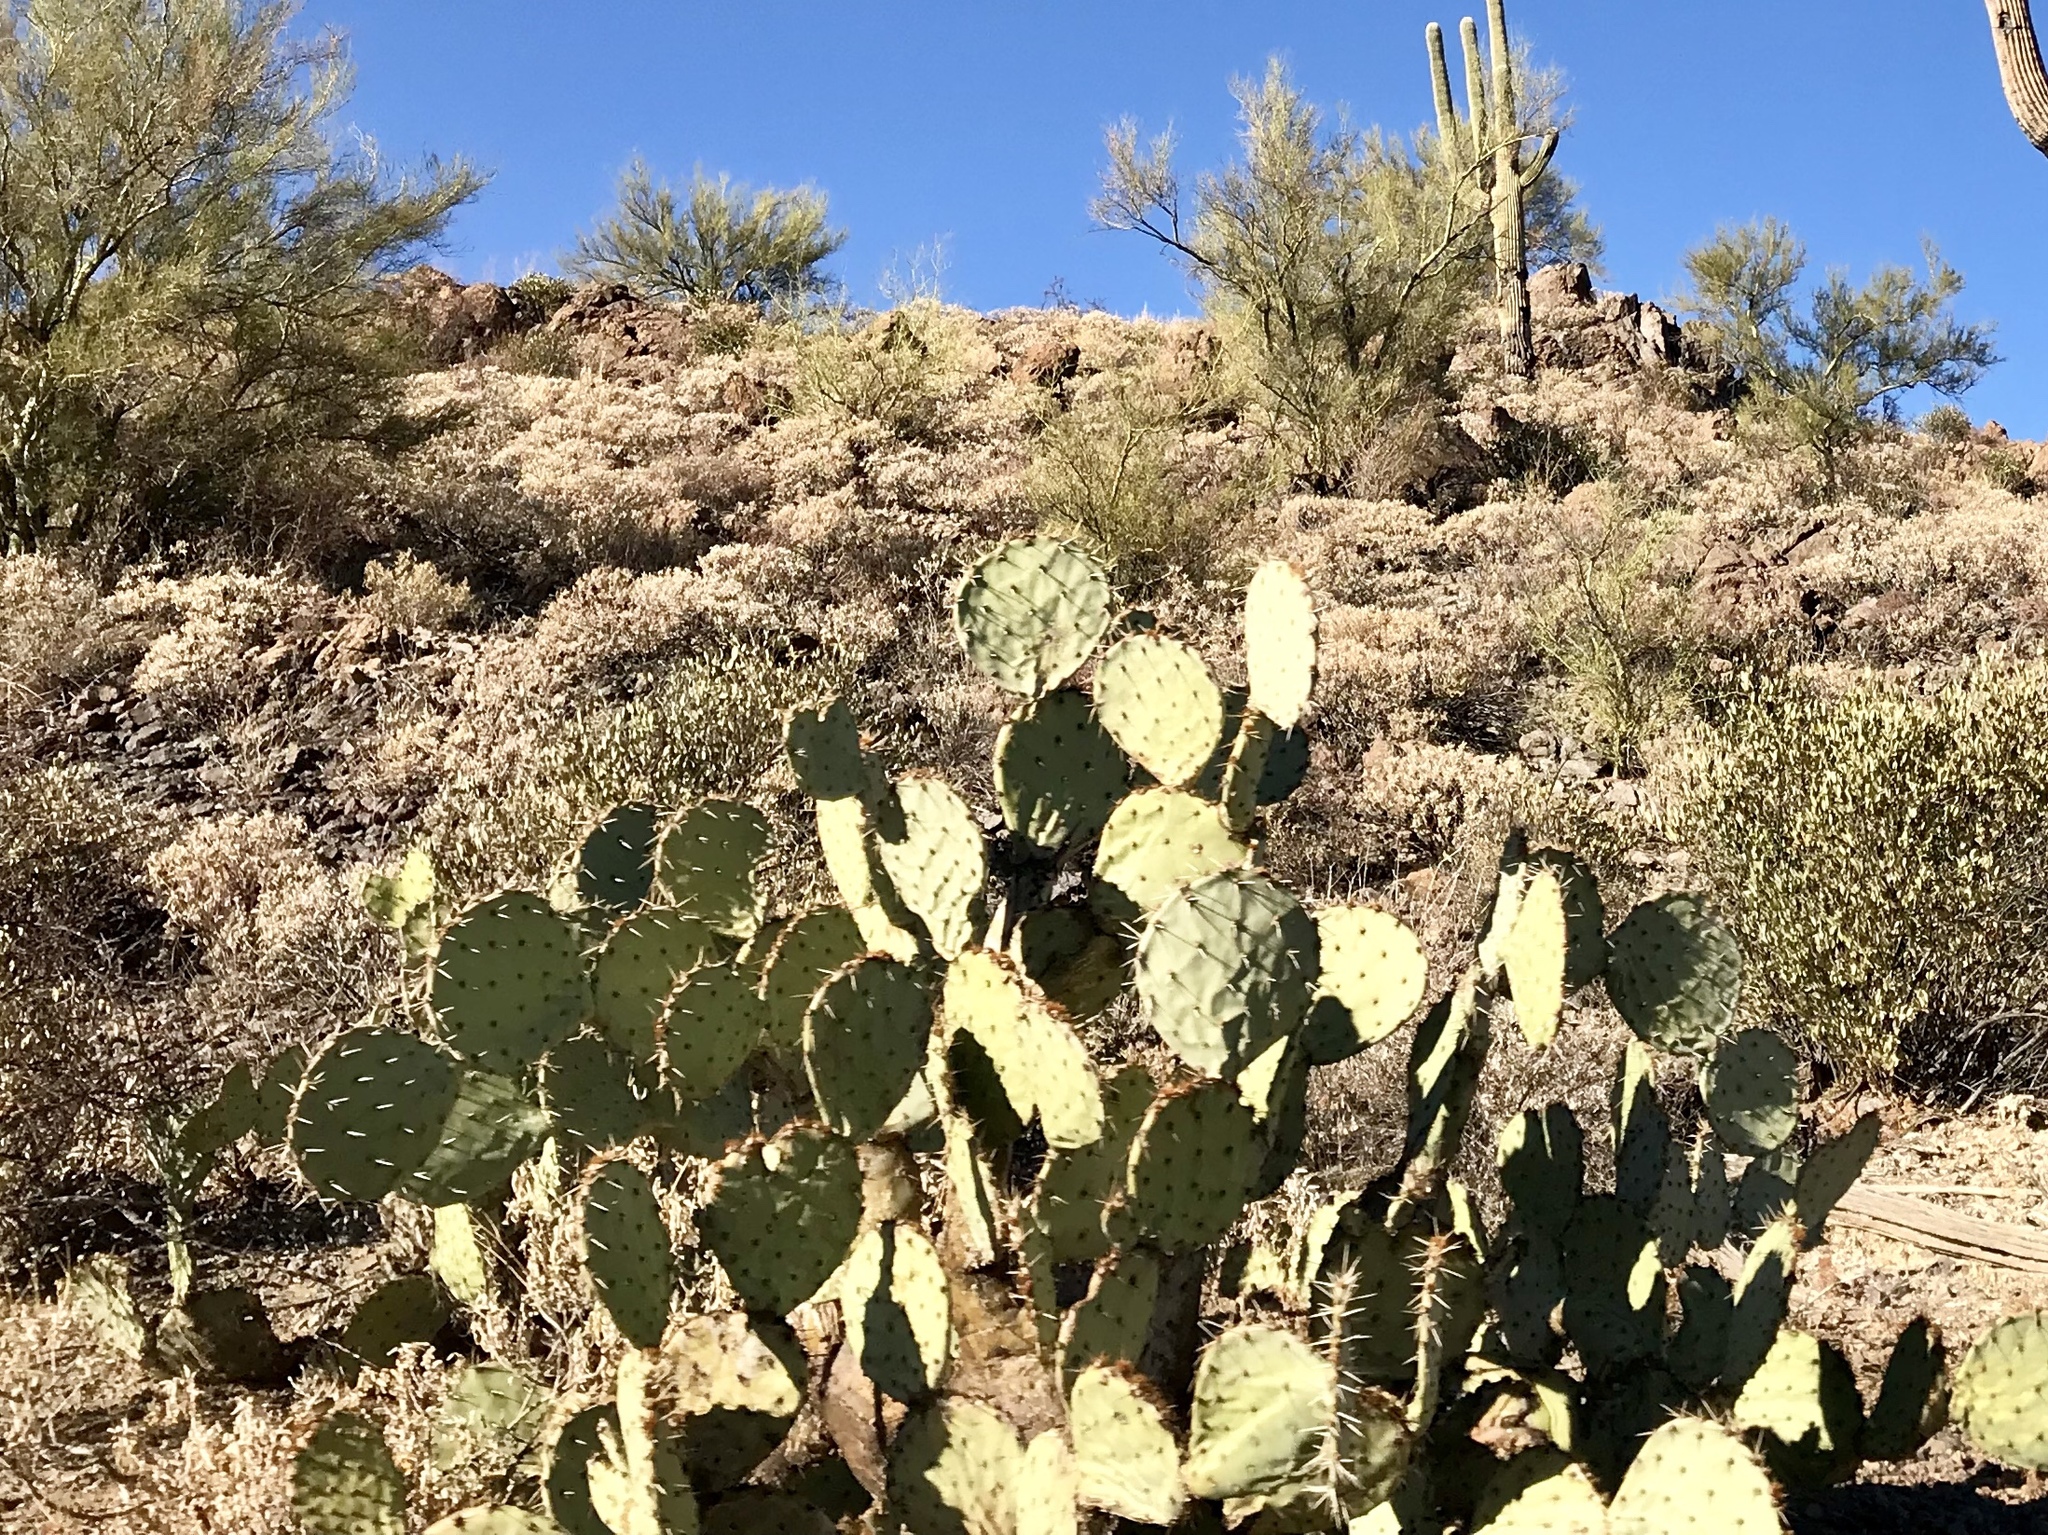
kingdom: Plantae
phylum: Tracheophyta
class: Magnoliopsida
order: Caryophyllales
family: Cactaceae
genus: Opuntia
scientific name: Opuntia engelmannii
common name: Cactus-apple
